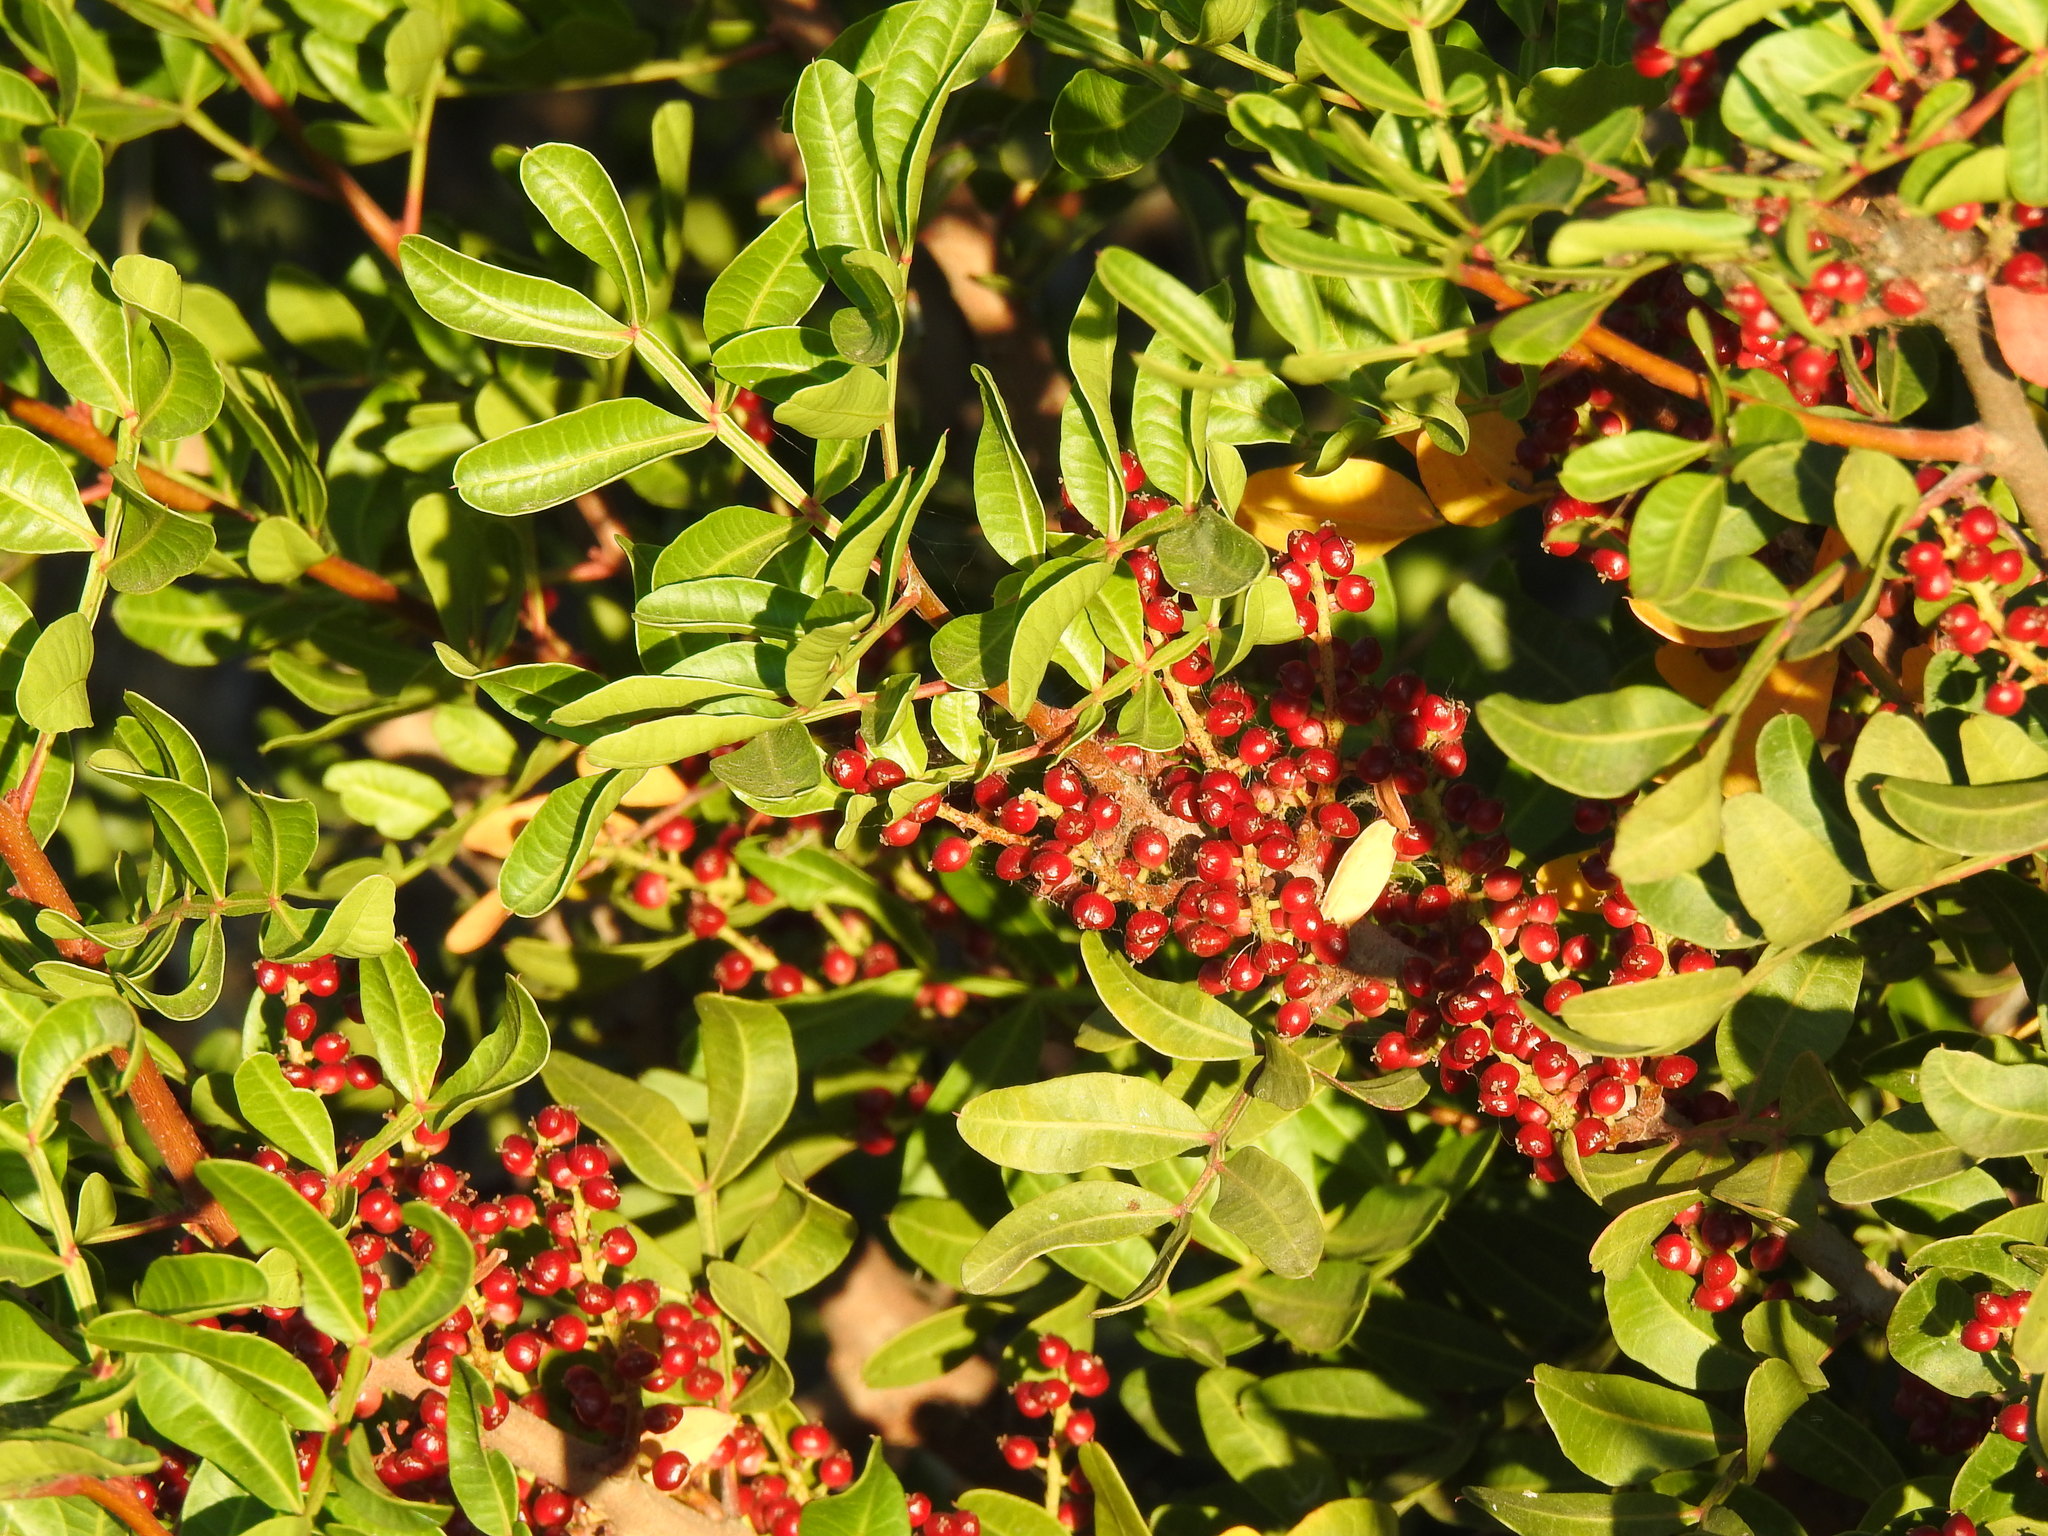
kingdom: Plantae
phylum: Tracheophyta
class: Magnoliopsida
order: Sapindales
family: Anacardiaceae
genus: Pistacia
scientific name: Pistacia lentiscus
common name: Lentisk
